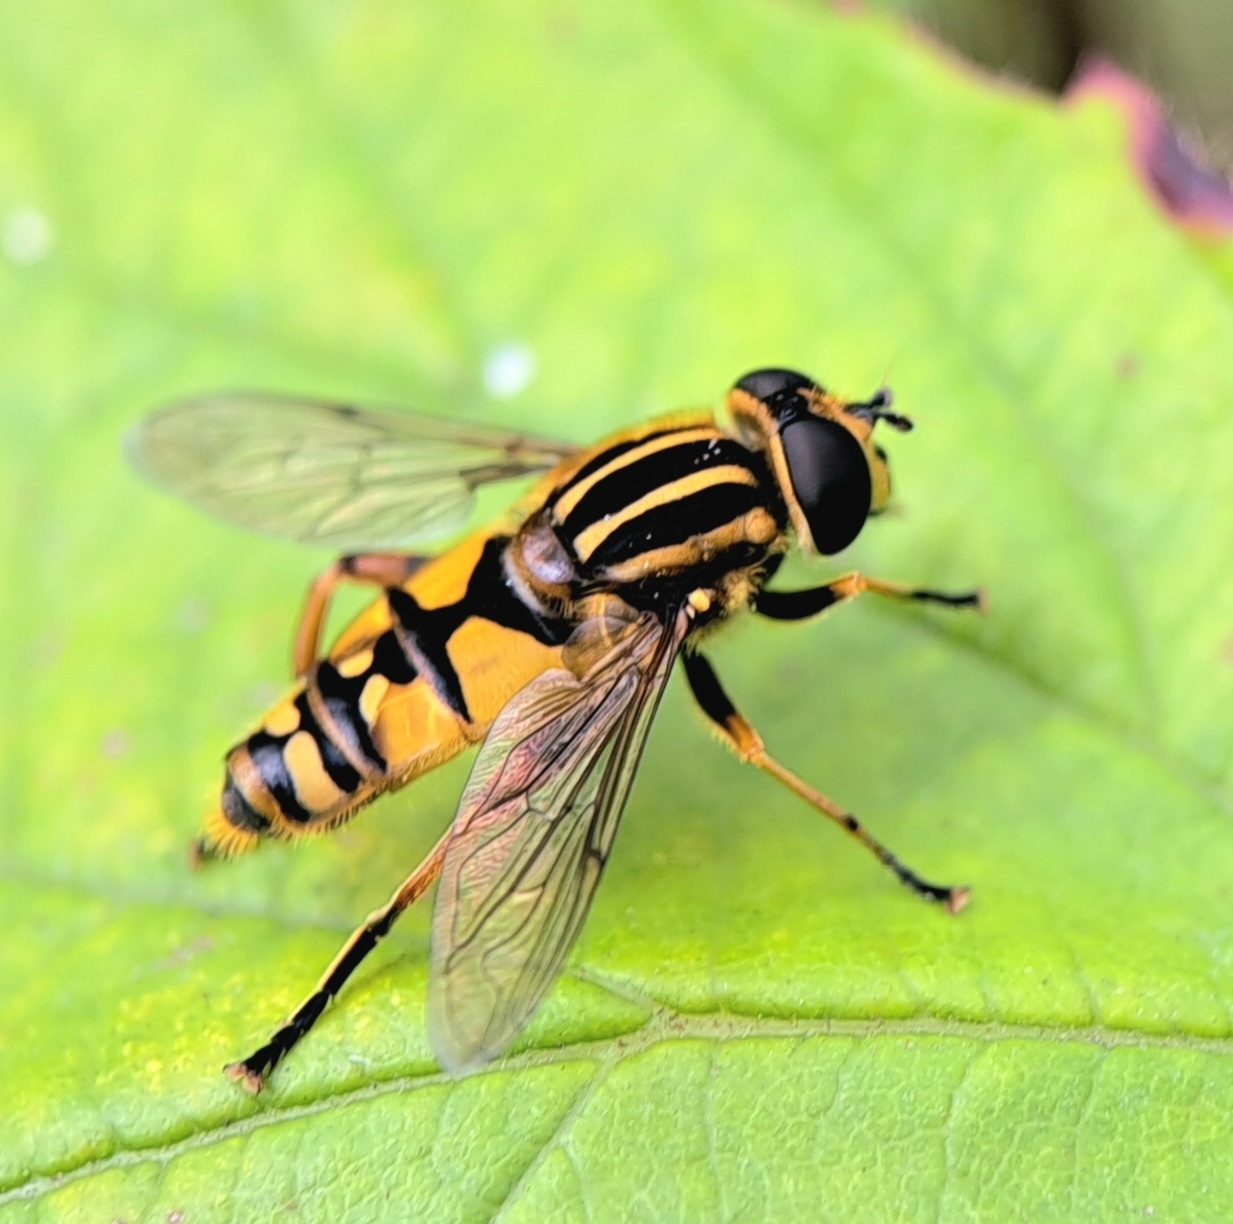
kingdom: Animalia
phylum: Arthropoda
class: Insecta
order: Diptera
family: Syrphidae
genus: Helophilus
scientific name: Helophilus pendulus
